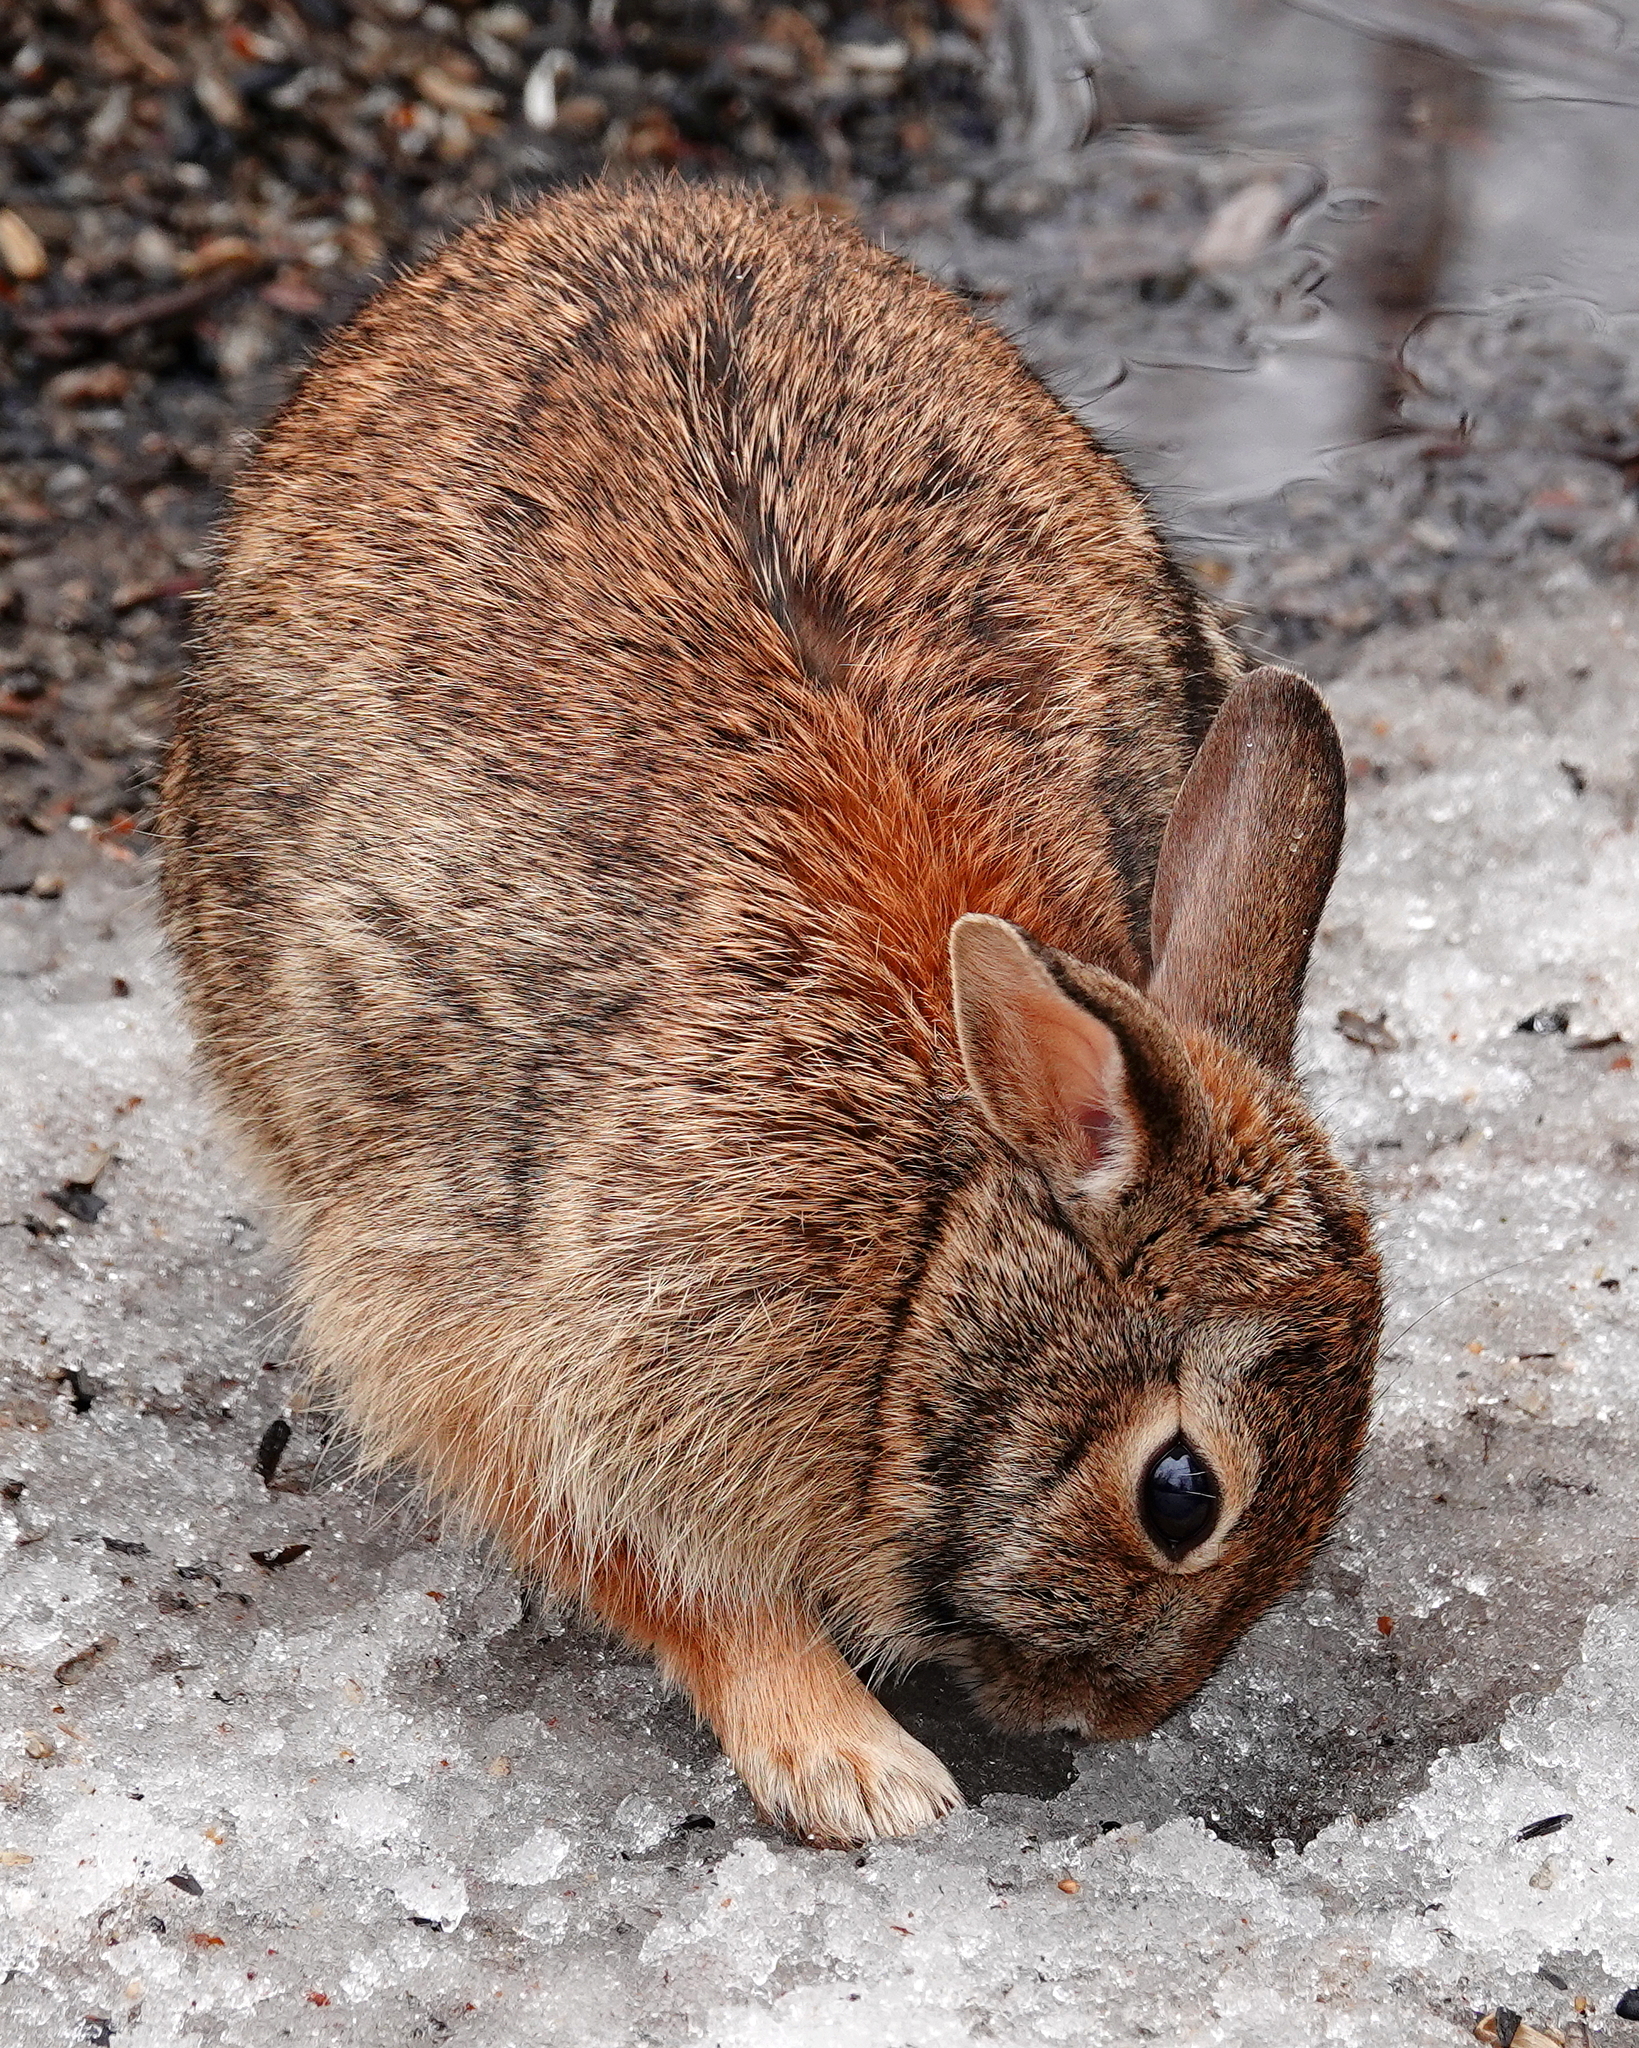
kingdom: Animalia
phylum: Chordata
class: Mammalia
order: Lagomorpha
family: Leporidae
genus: Sylvilagus
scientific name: Sylvilagus floridanus
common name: Eastern cottontail
